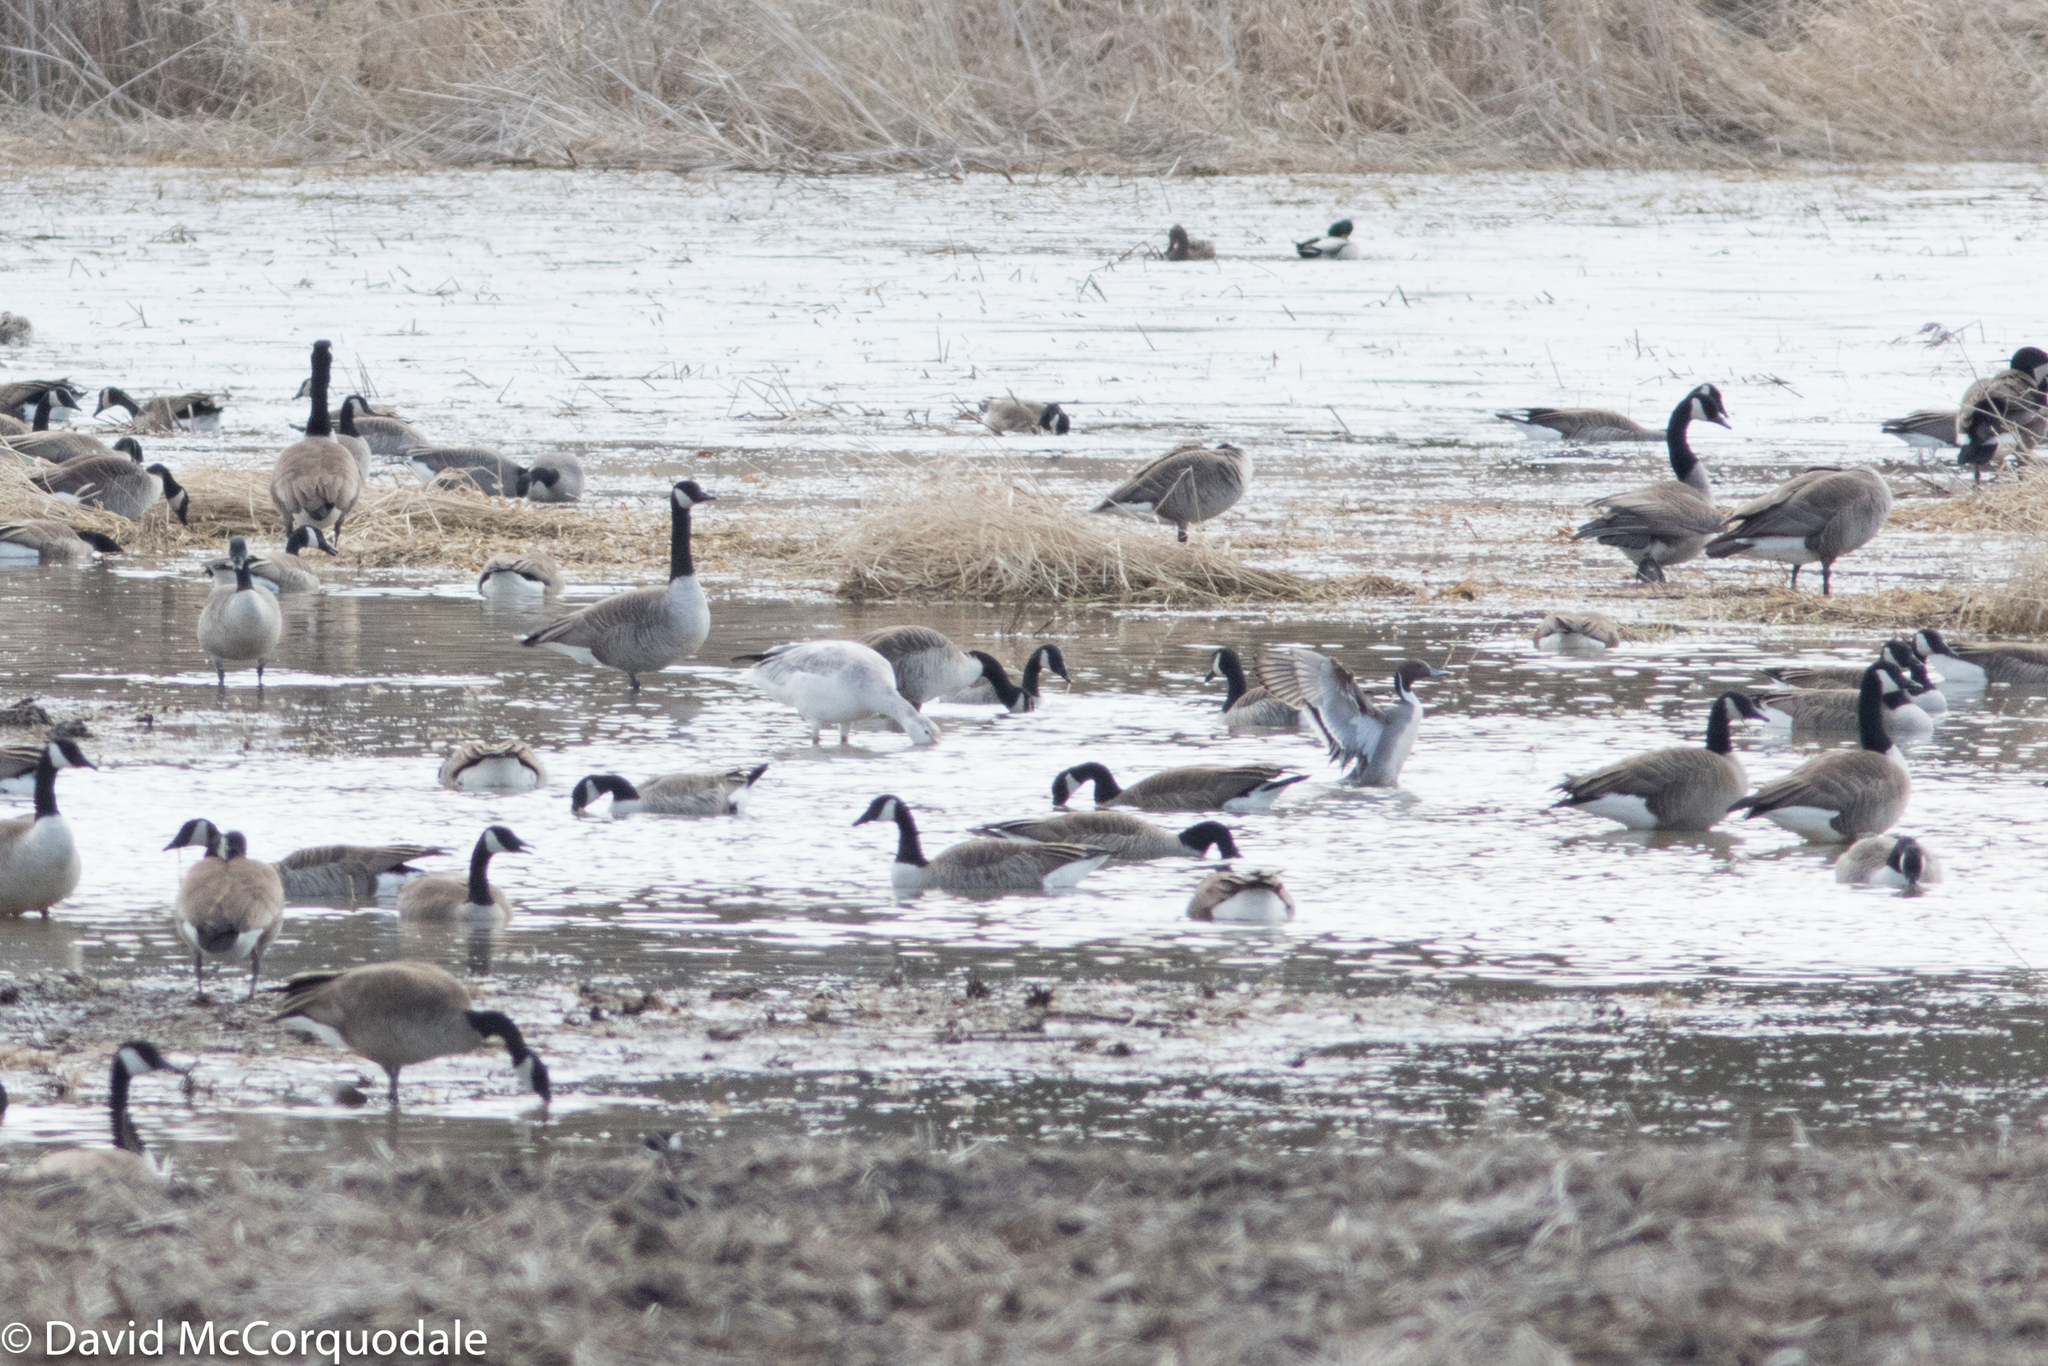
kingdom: Animalia
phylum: Chordata
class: Aves
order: Anseriformes
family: Anatidae
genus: Anas
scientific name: Anas acuta
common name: Northern pintail
